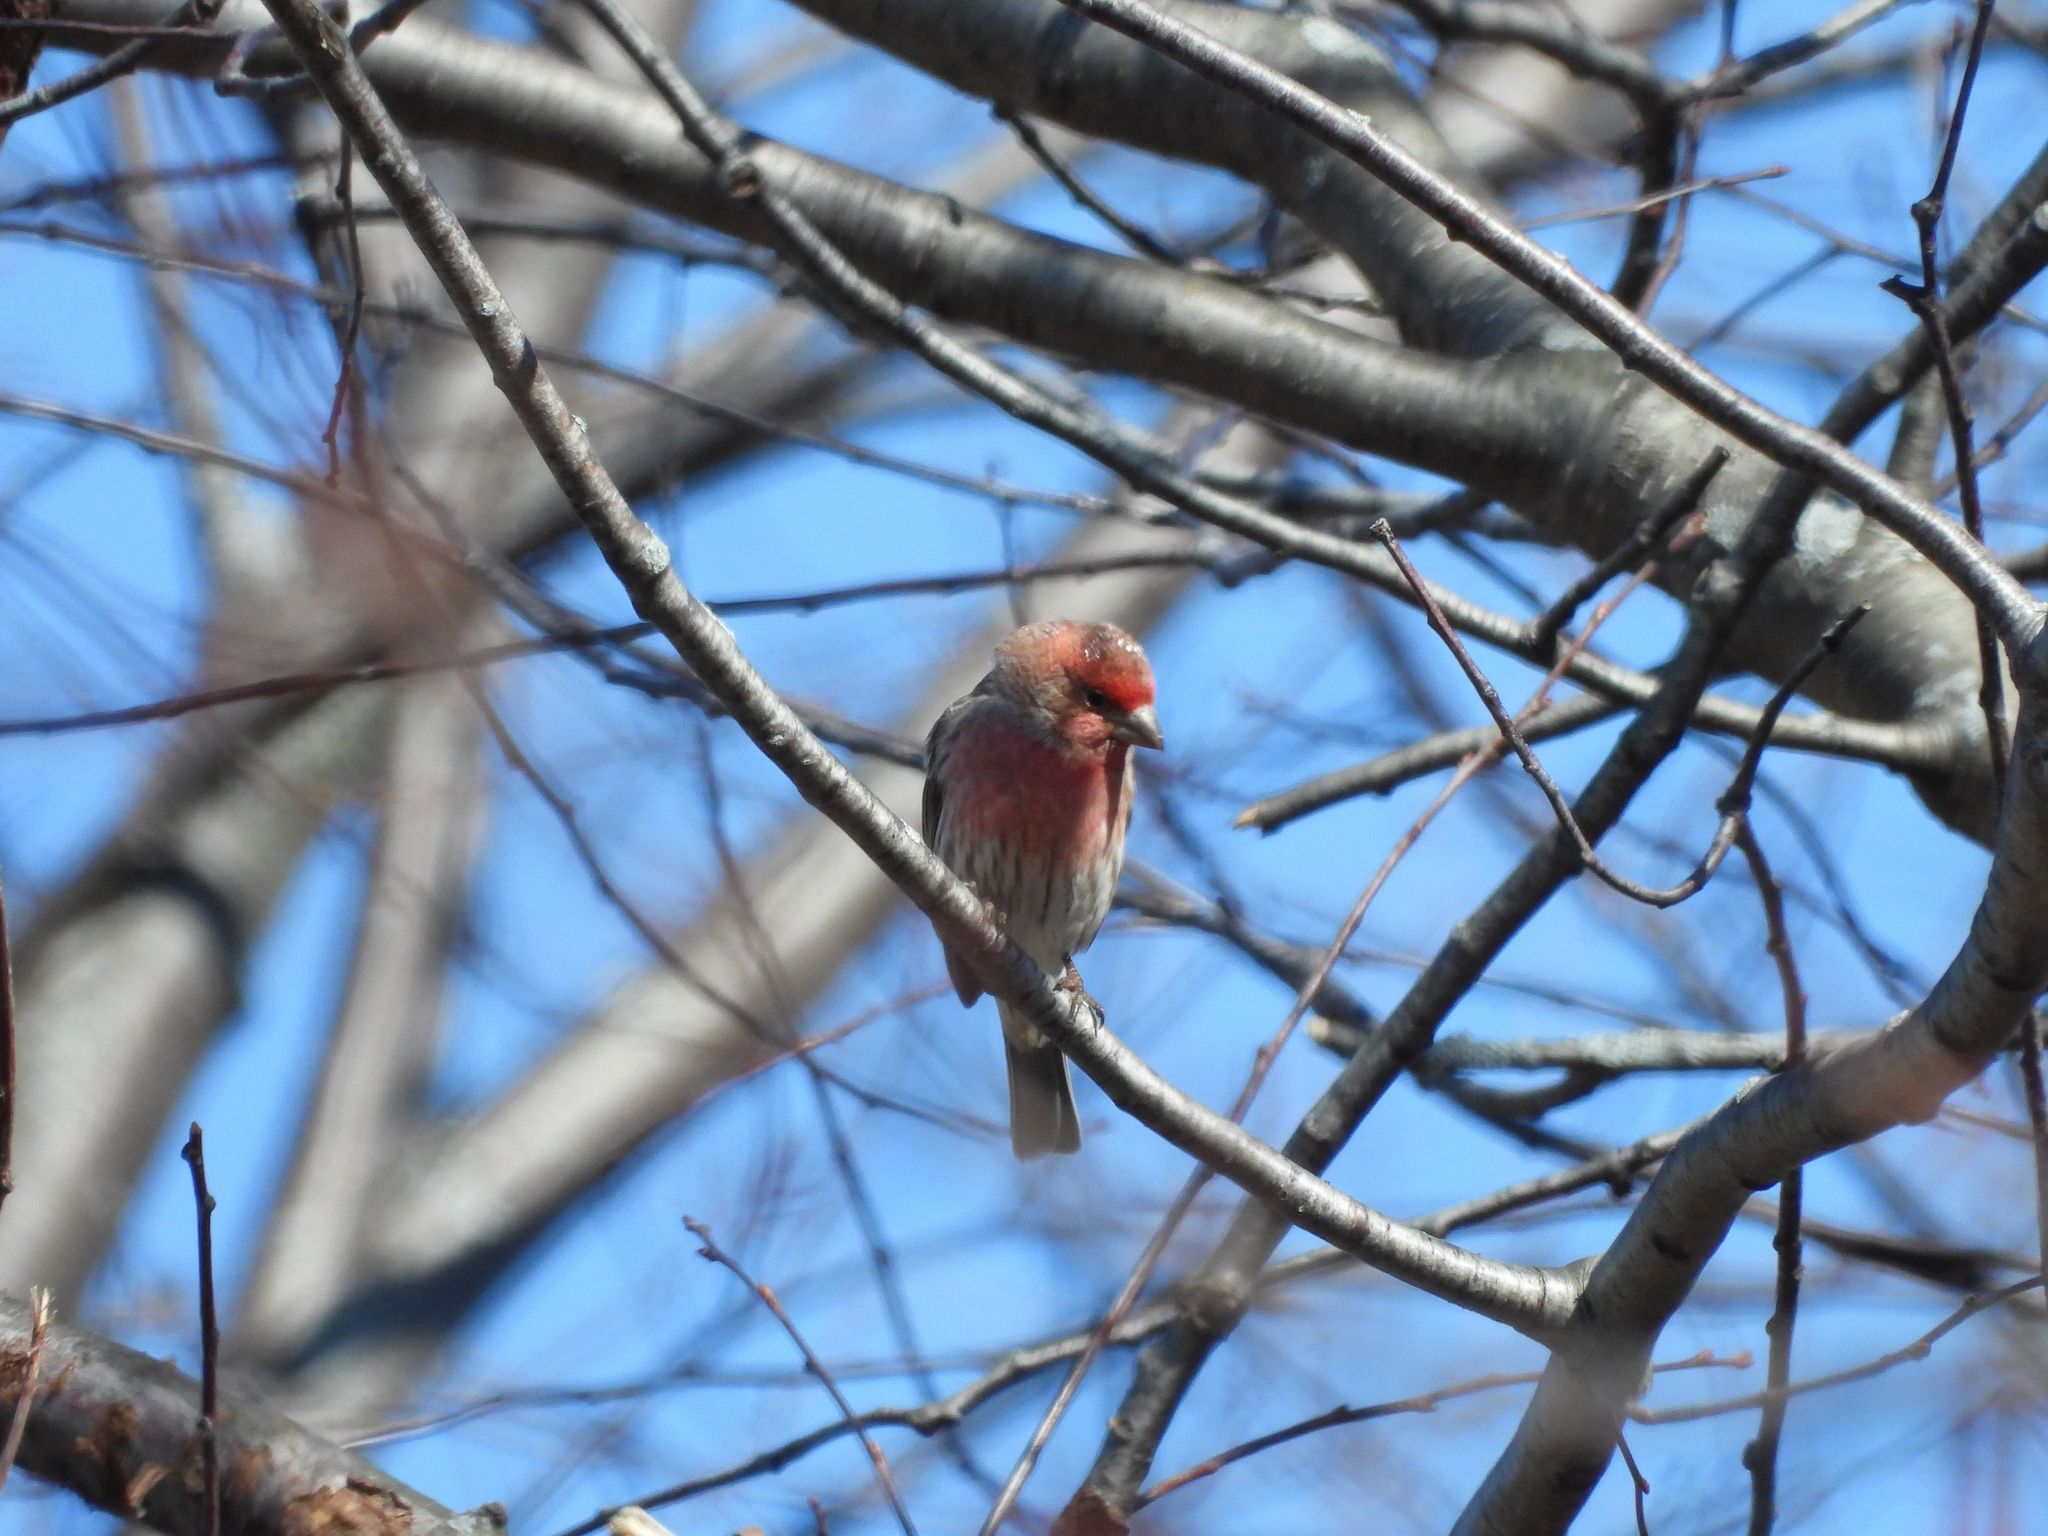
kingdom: Animalia
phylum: Chordata
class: Aves
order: Passeriformes
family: Fringillidae
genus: Haemorhous
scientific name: Haemorhous mexicanus
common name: House finch
